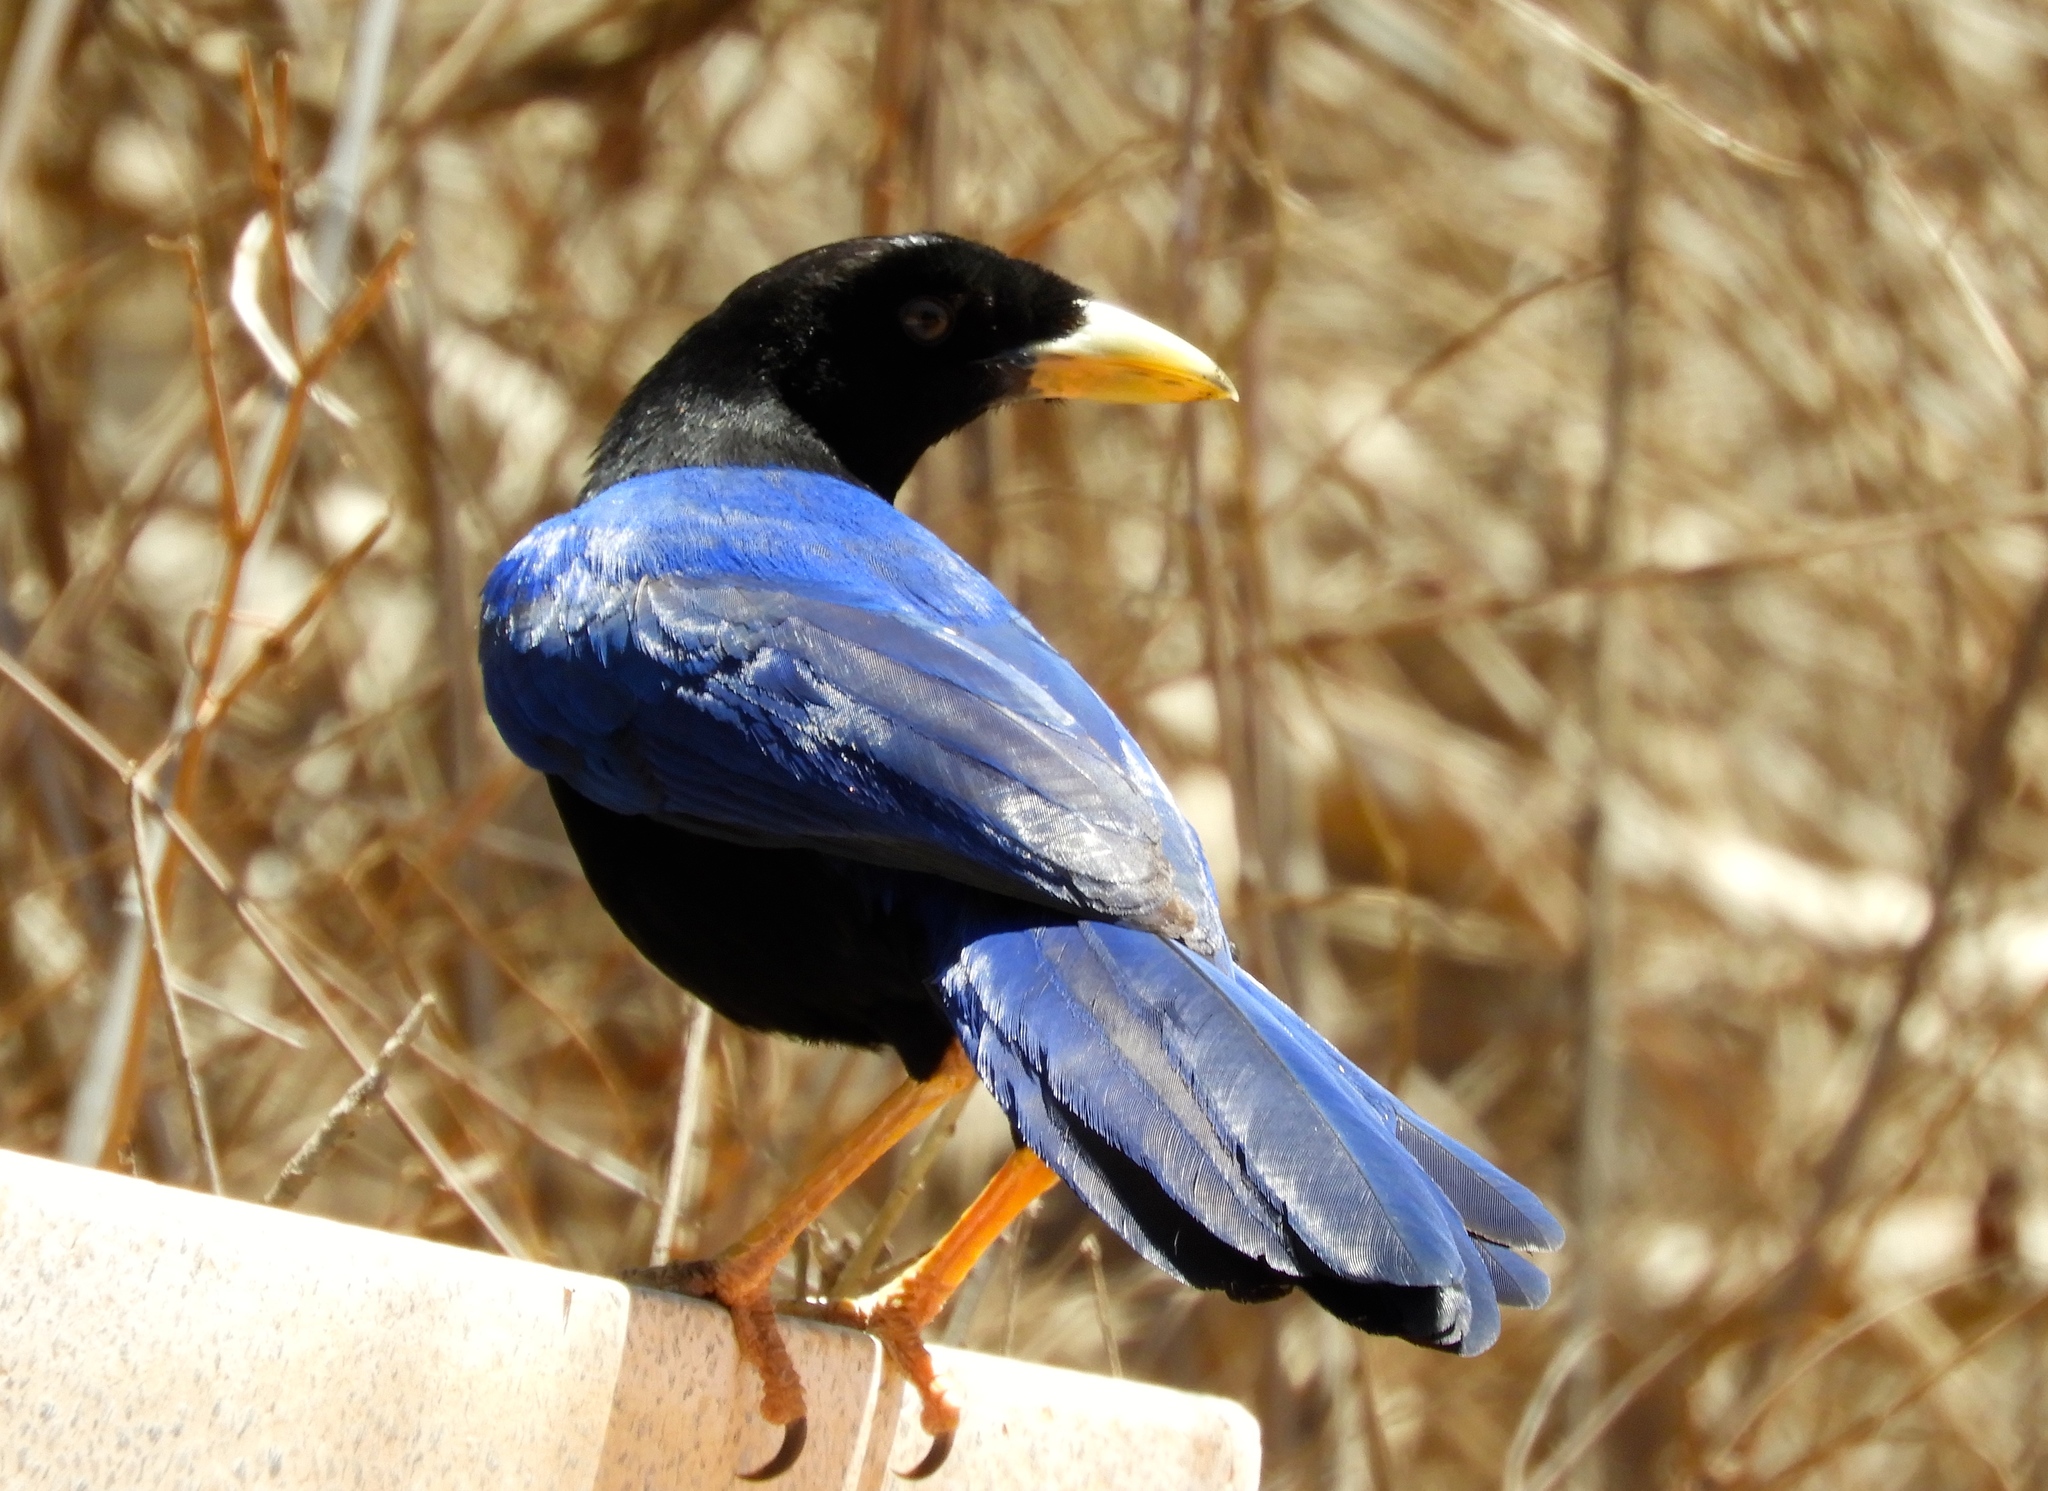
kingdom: Animalia
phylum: Chordata
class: Aves
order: Passeriformes
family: Corvidae
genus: Cyanocorax
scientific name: Cyanocorax beecheii
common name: Purplish-backed jay
